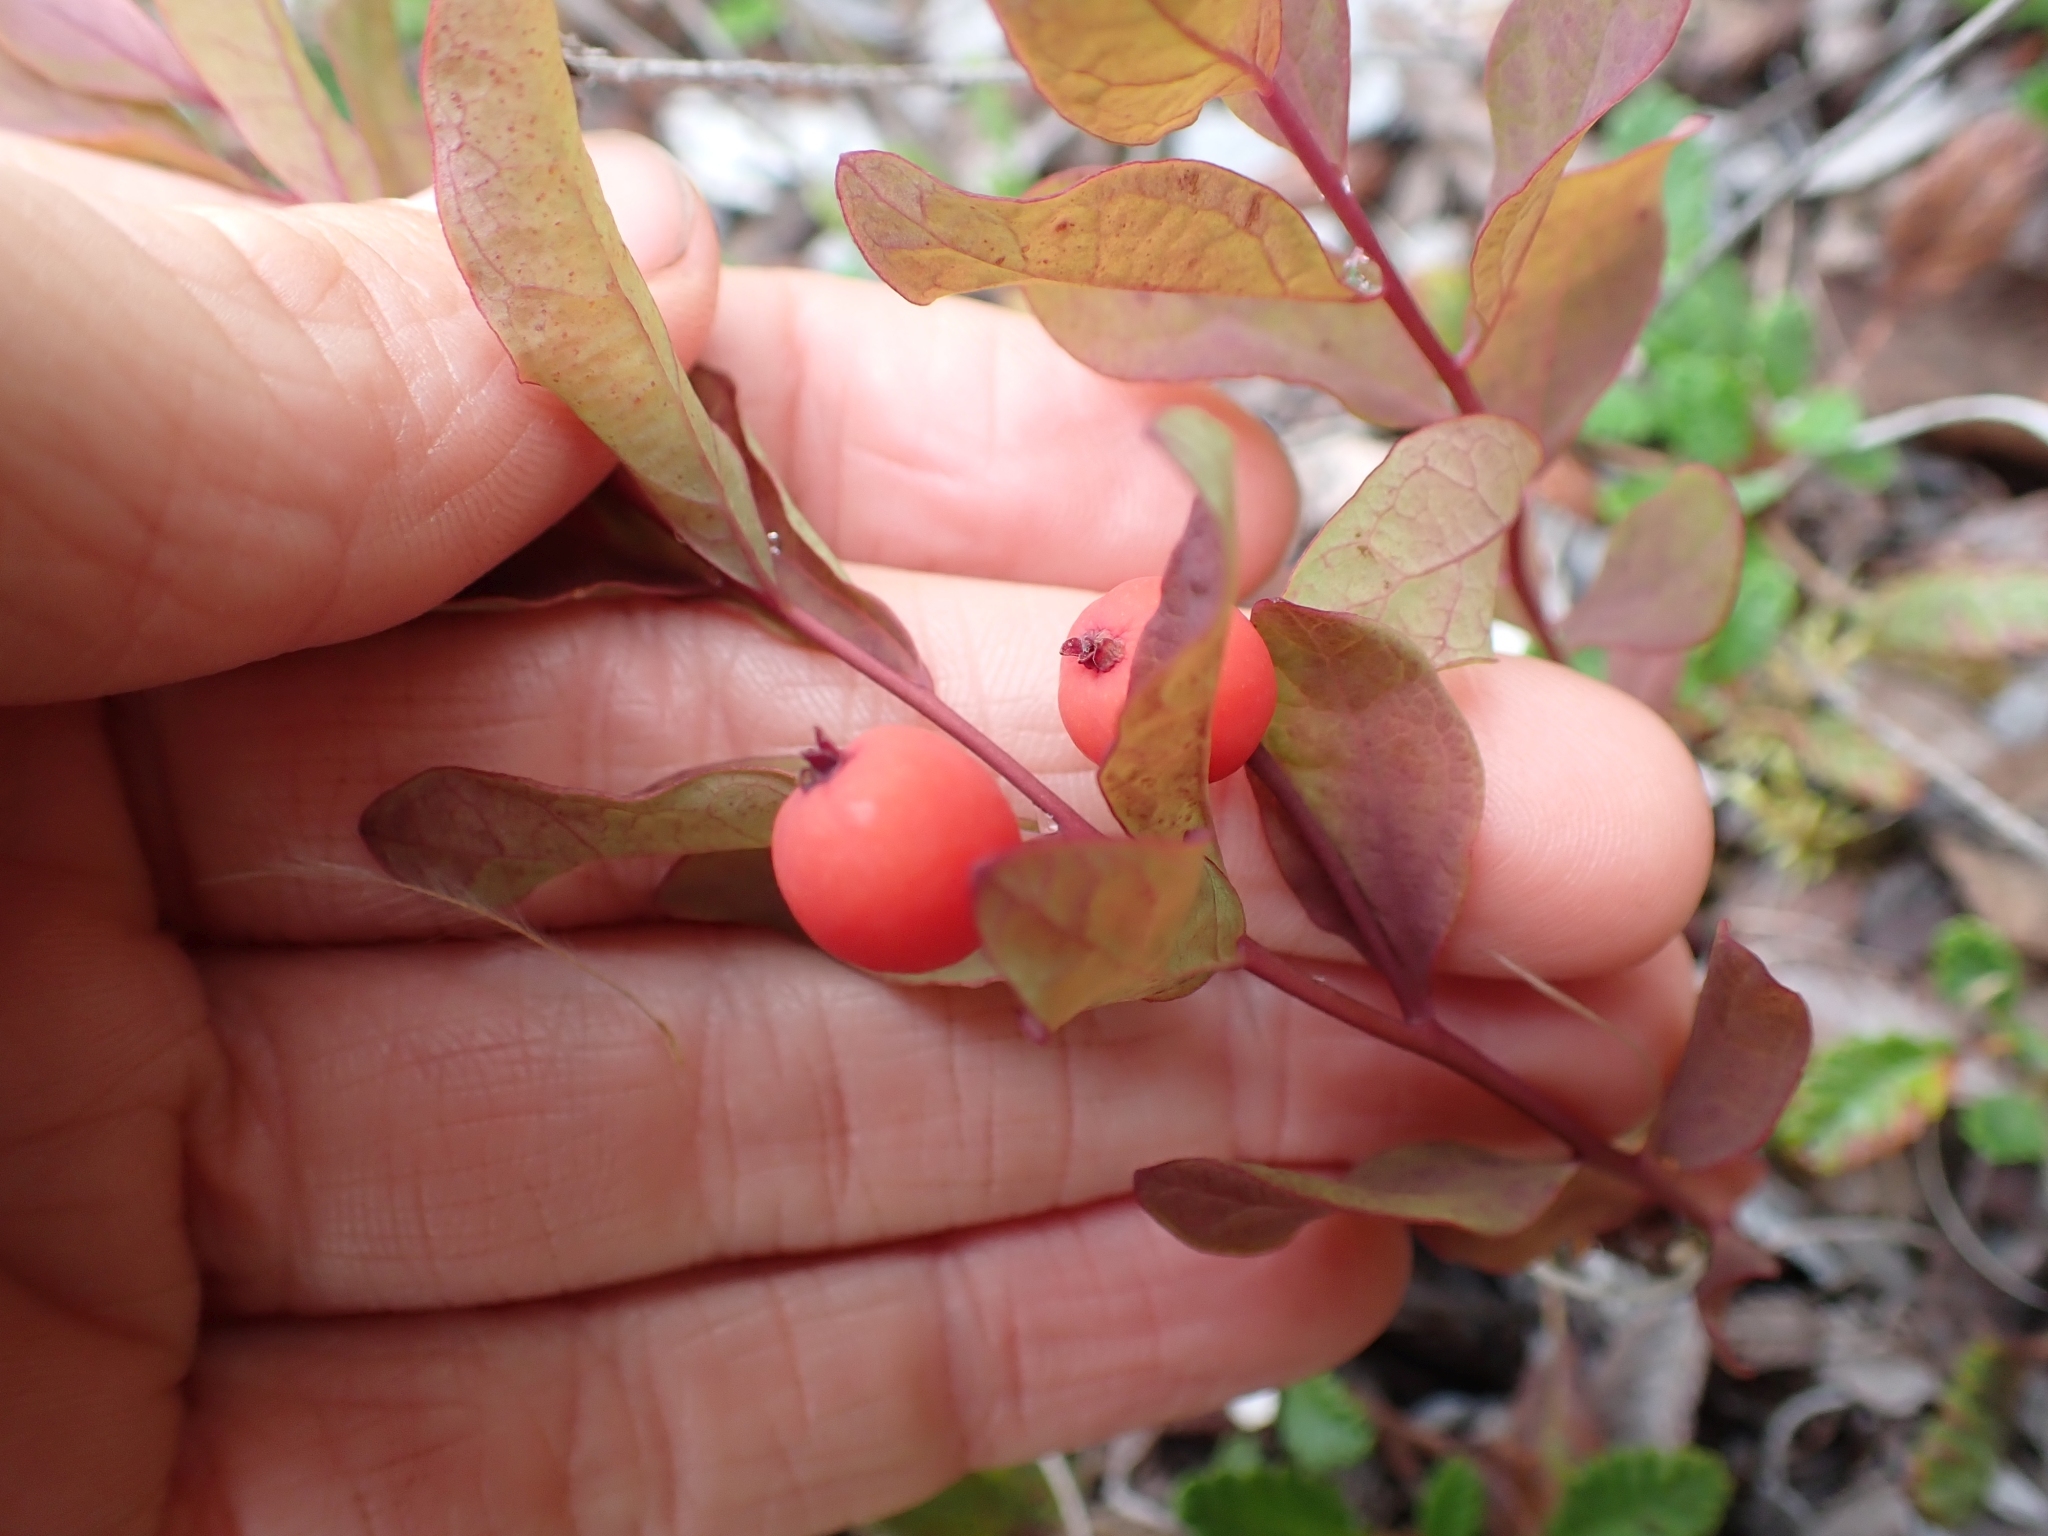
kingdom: Plantae
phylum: Tracheophyta
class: Magnoliopsida
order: Santalales
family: Comandraceae
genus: Geocaulon
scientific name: Geocaulon lividum
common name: Earthberry
